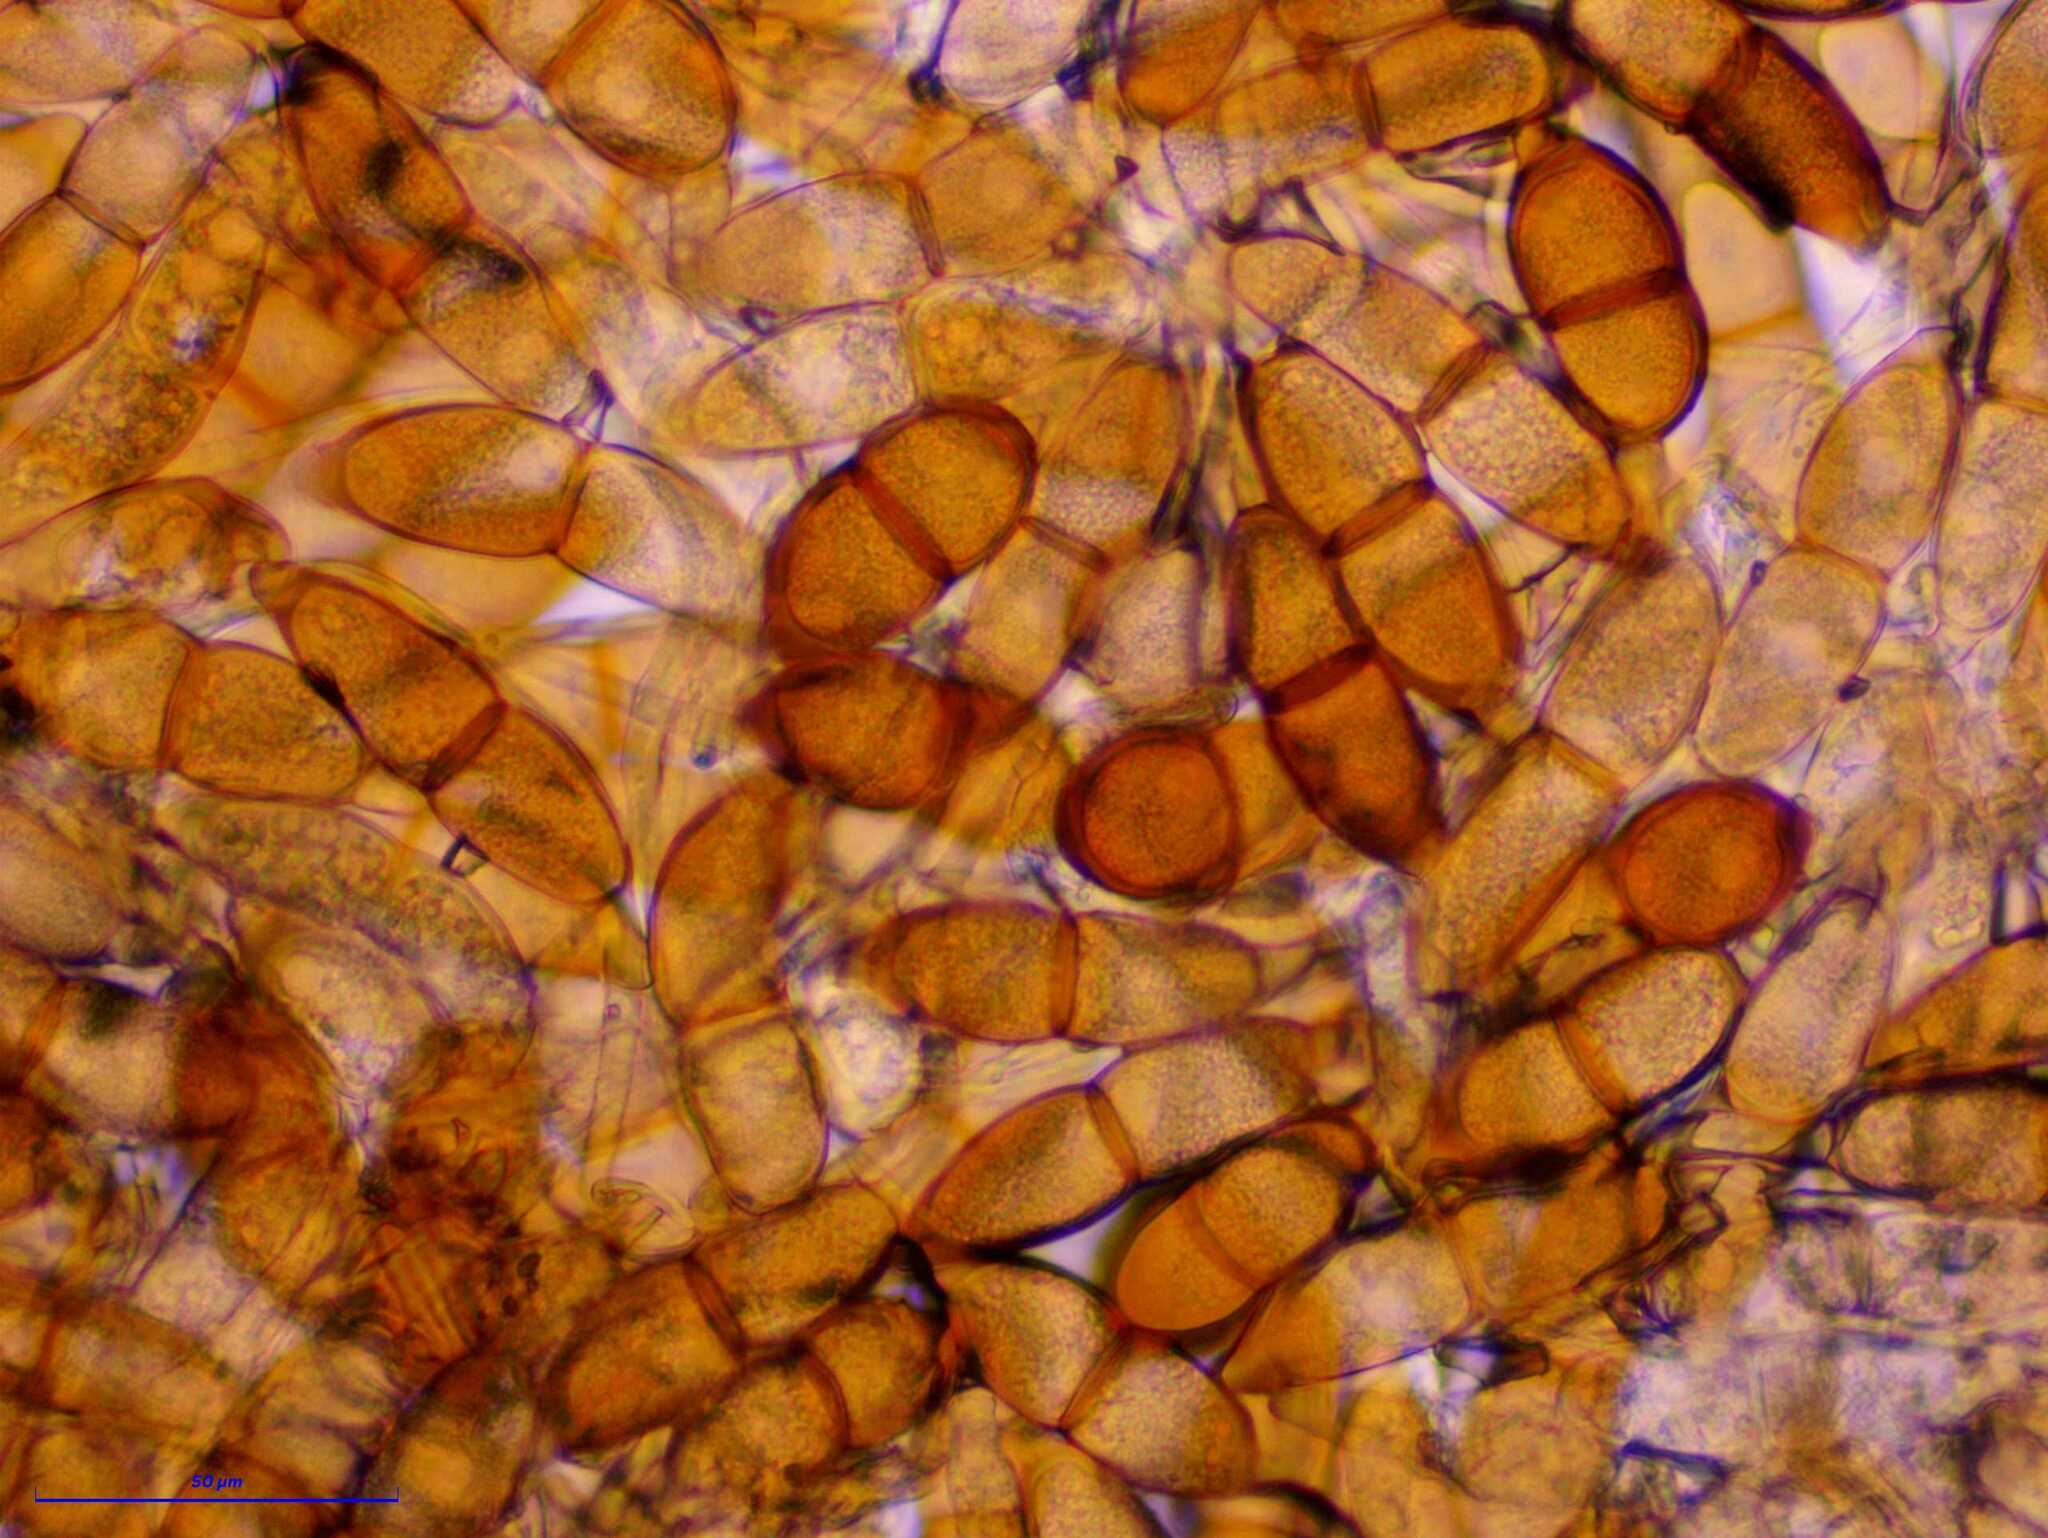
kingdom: Fungi
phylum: Basidiomycota
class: Pucciniomycetes
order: Pucciniales
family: Pucciniaceae
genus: Puccinia
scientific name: Puccinia longicornis
